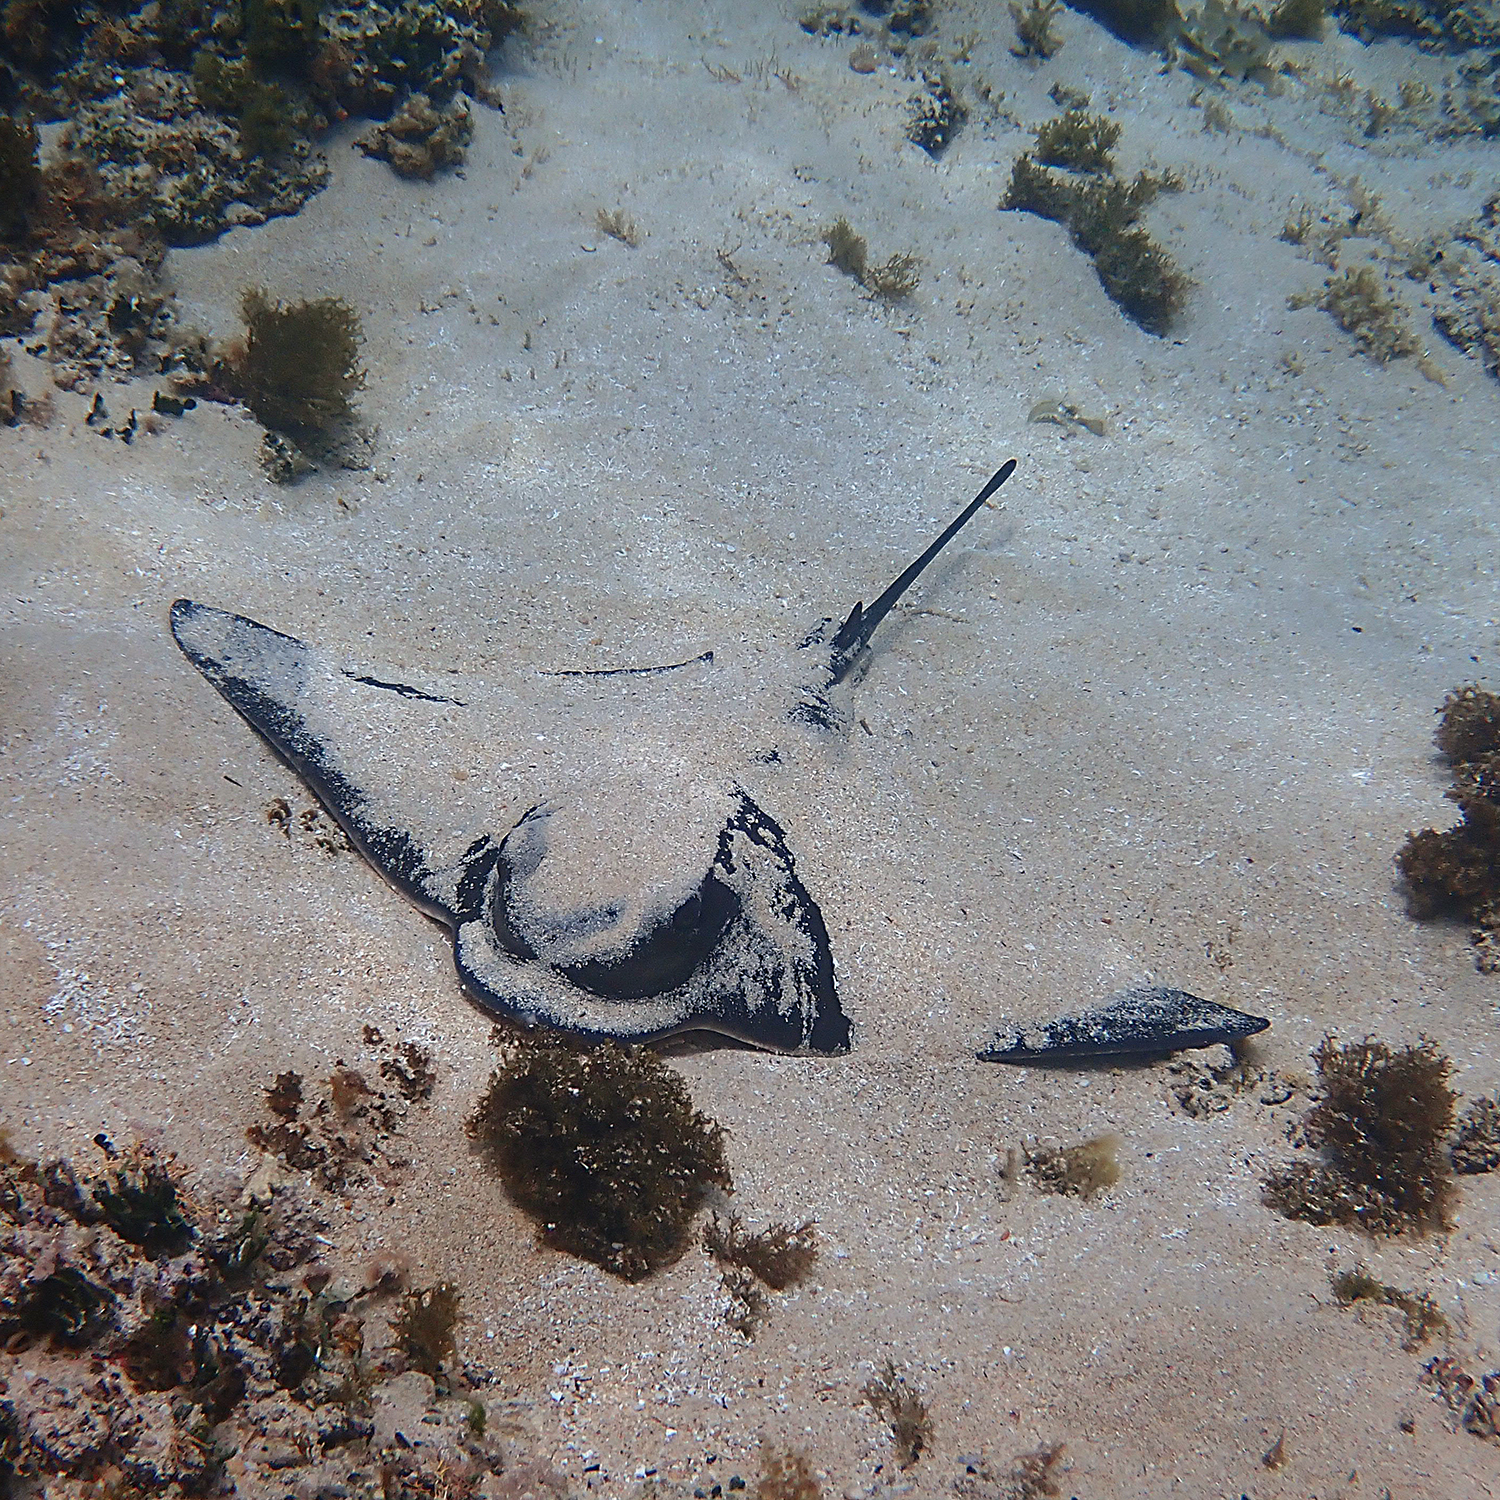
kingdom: Animalia
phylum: Chordata
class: Elasmobranchii
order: Myliobatiformes
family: Myliobatidae
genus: Myliobatis
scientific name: Myliobatis tenuicaudatus
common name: Eagle ray
